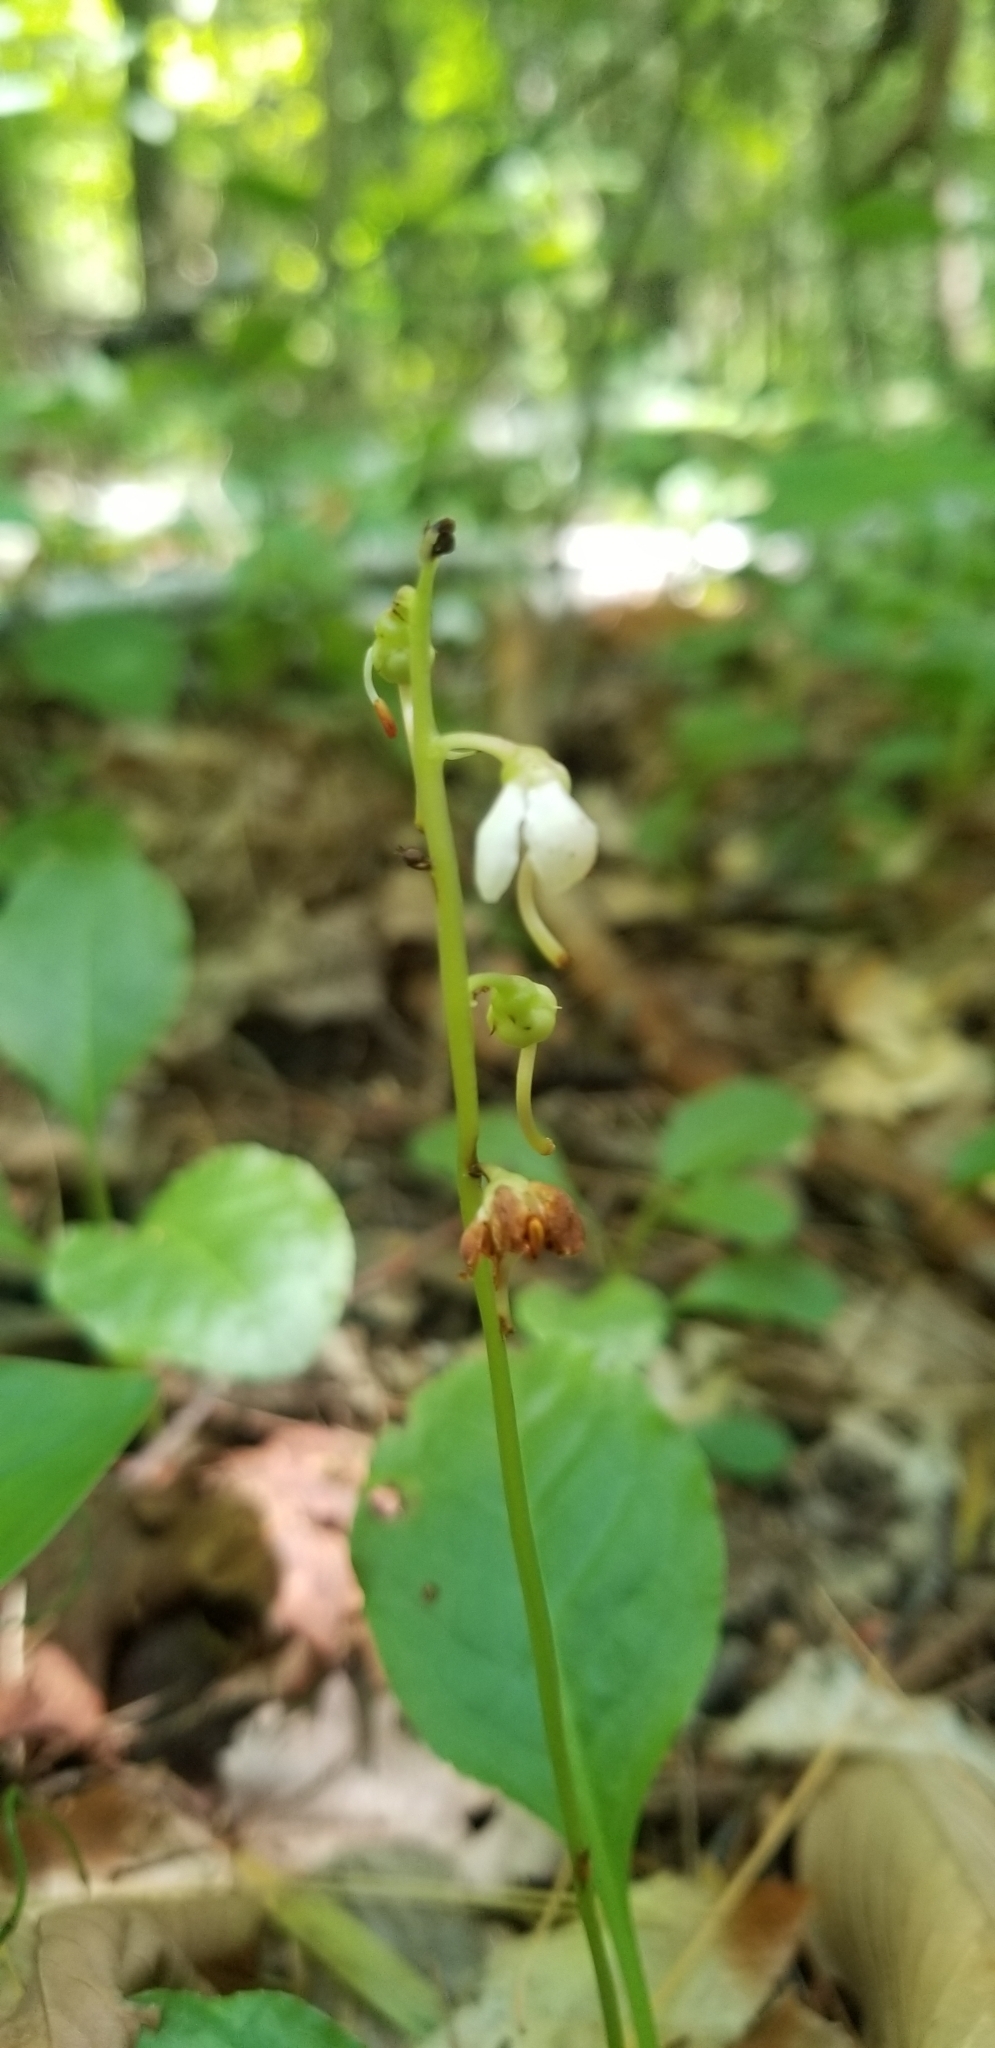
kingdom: Plantae
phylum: Tracheophyta
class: Magnoliopsida
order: Ericales
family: Ericaceae
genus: Pyrola
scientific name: Pyrola elliptica
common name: Shinleaf
